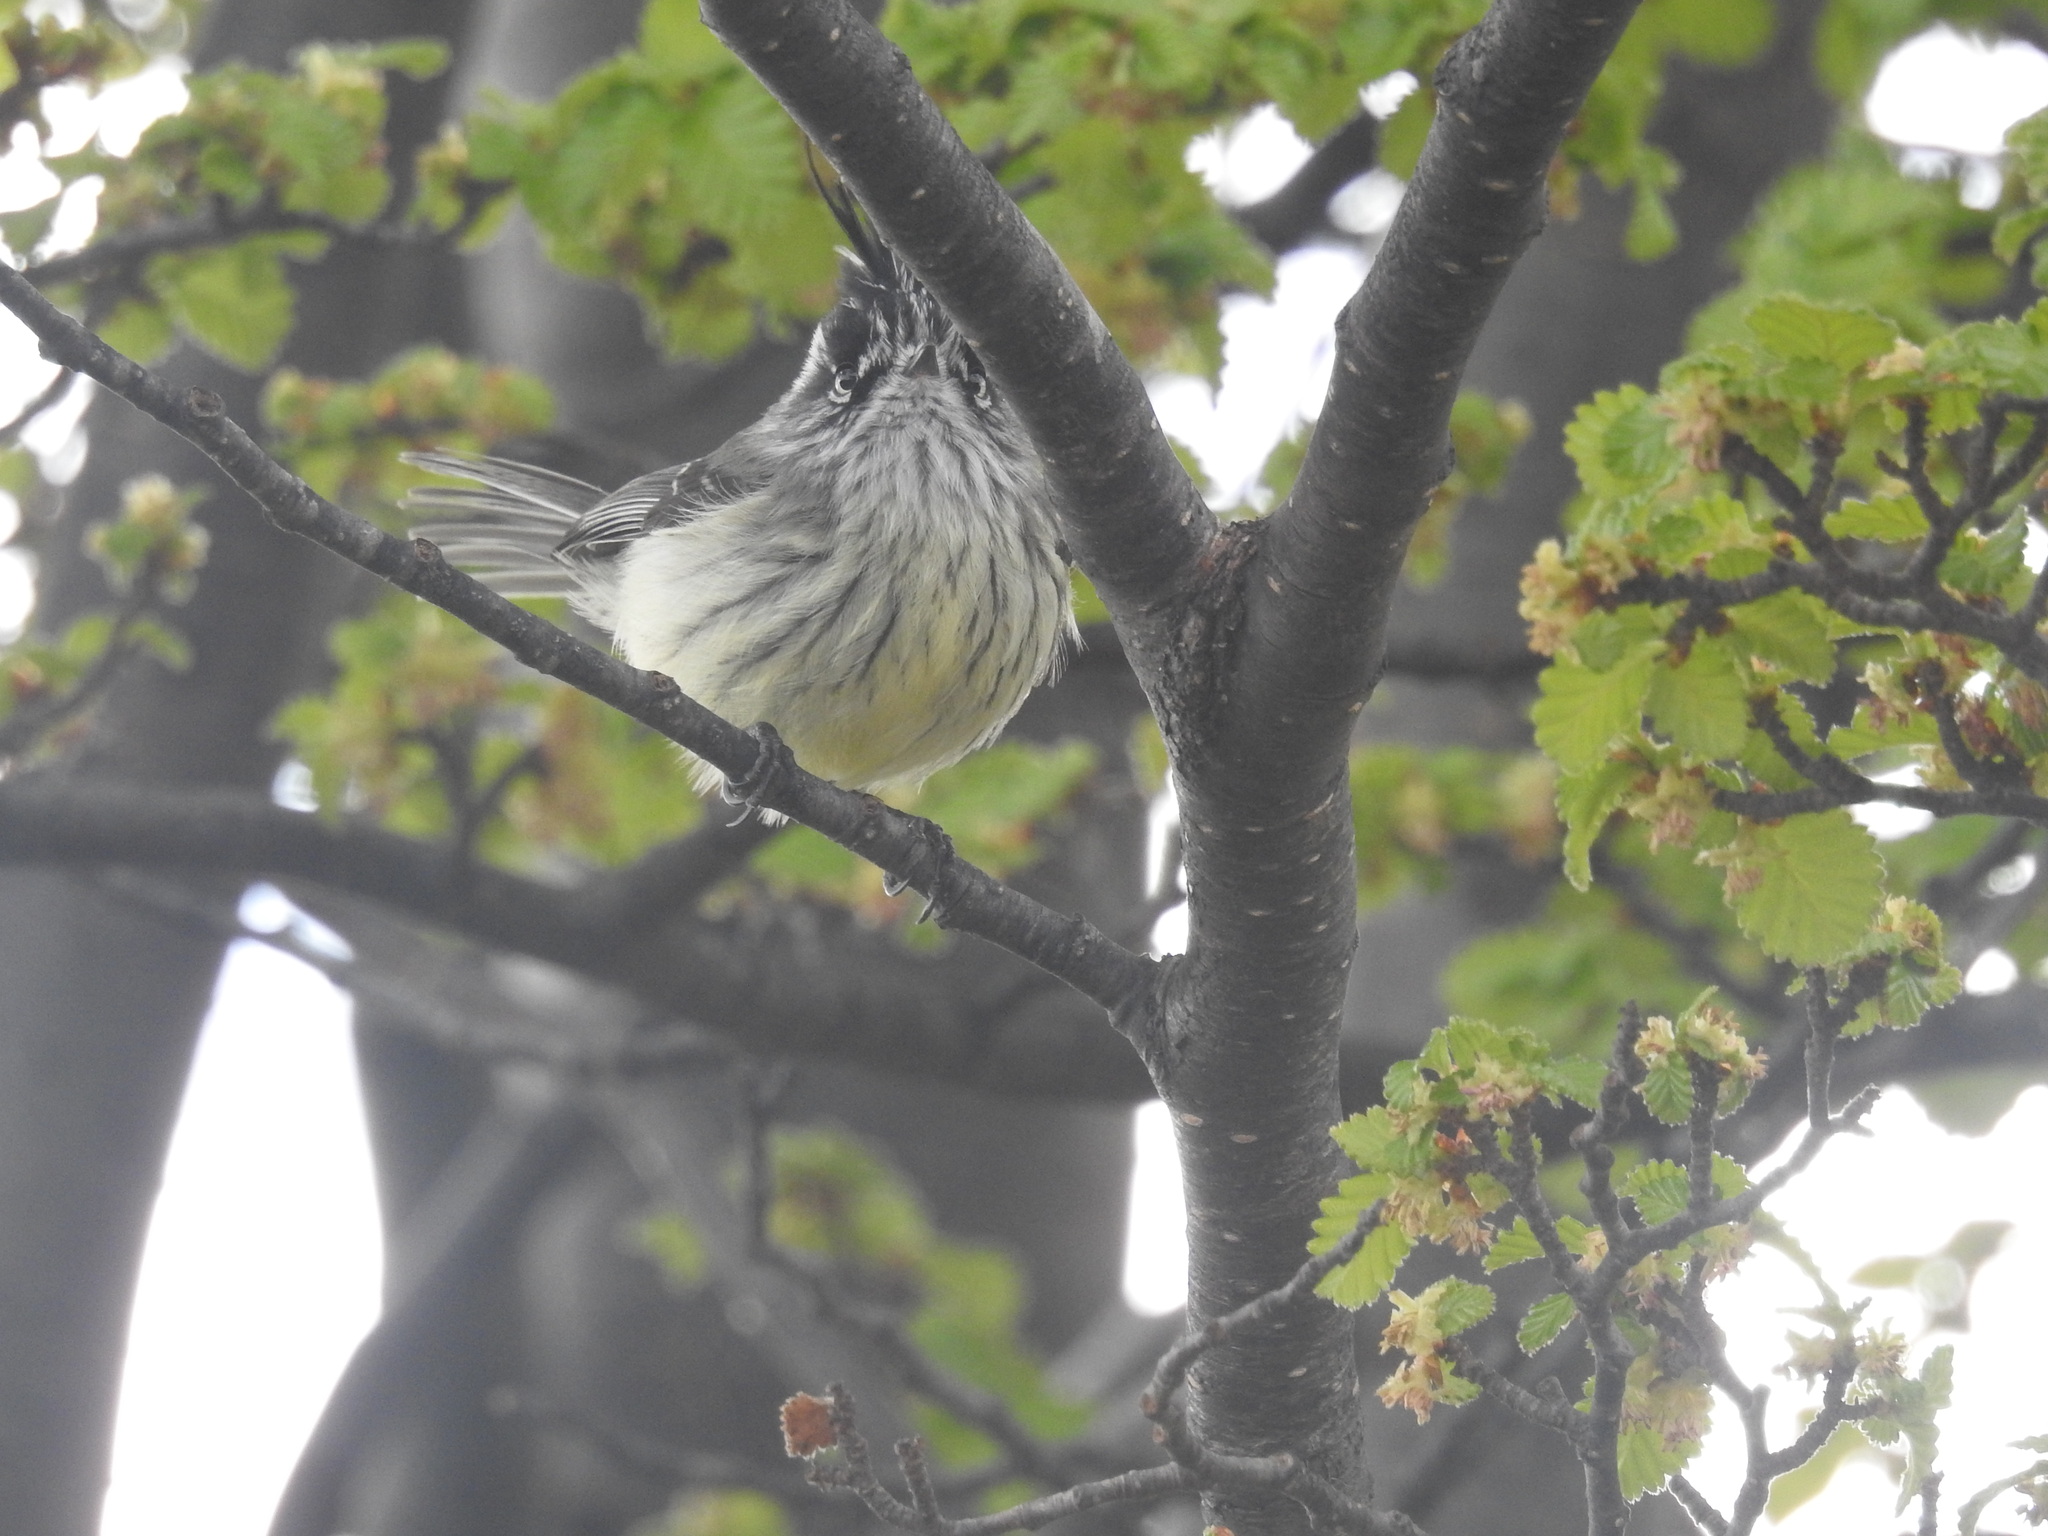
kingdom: Animalia
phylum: Chordata
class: Aves
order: Passeriformes
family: Tyrannidae
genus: Anairetes
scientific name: Anairetes parulus
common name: Tufted tit-tyrant
